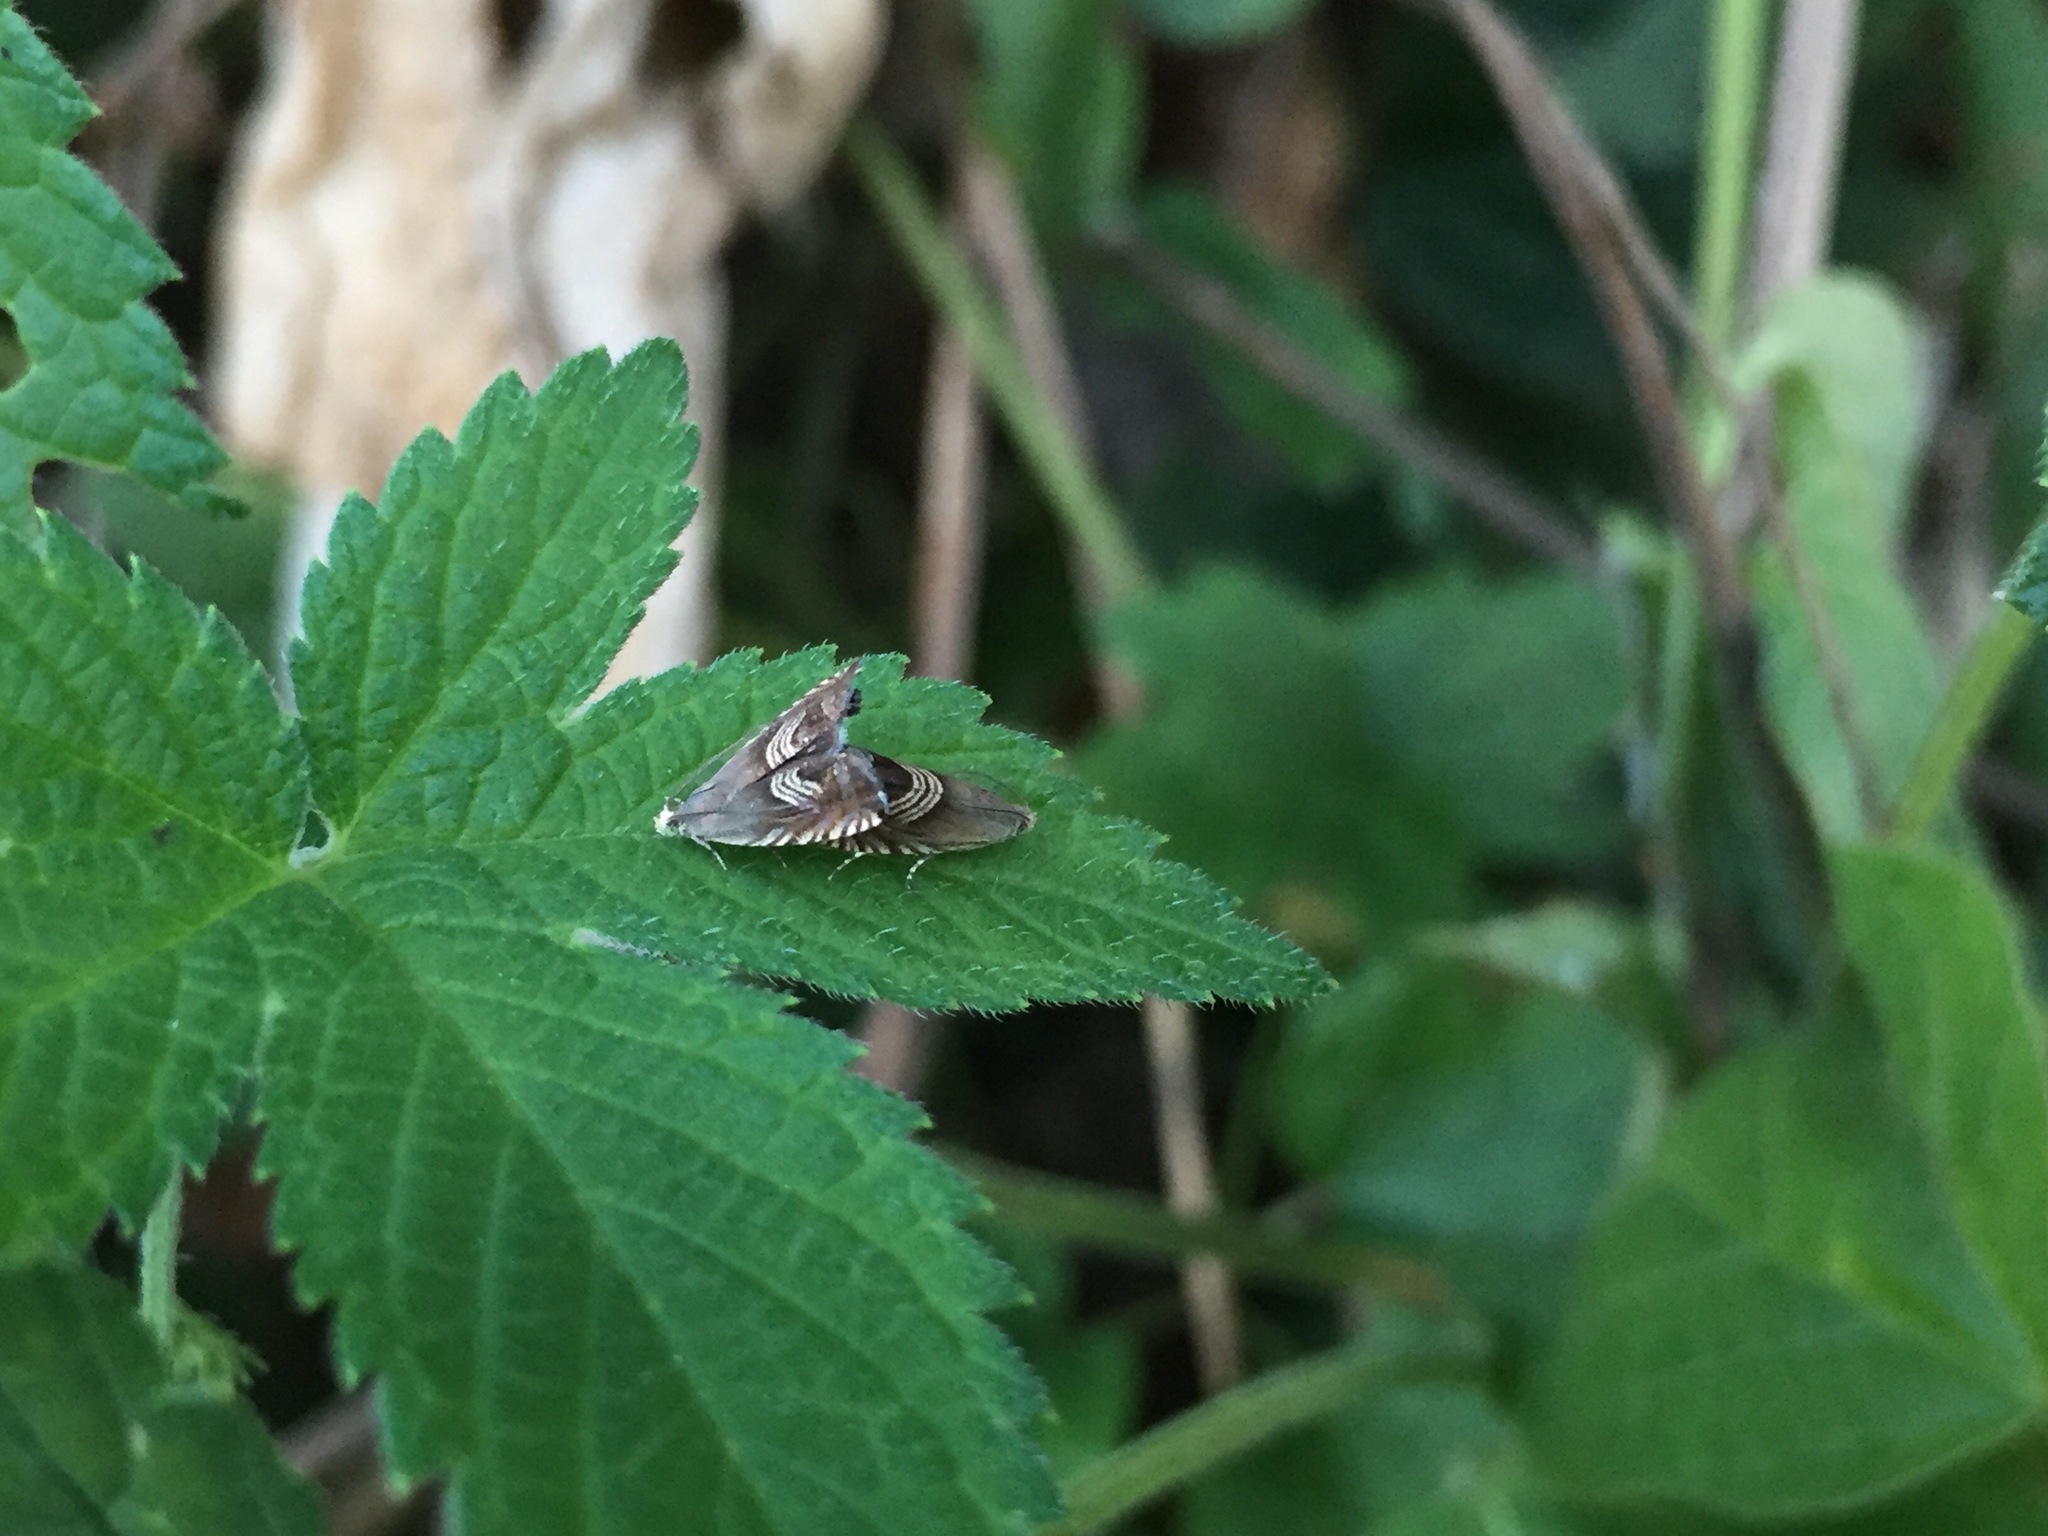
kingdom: Animalia
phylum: Arthropoda
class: Insecta
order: Lepidoptera
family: Tortricidae
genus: Grapholita
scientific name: Grapholita delineana
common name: Eurasian hemp moth
